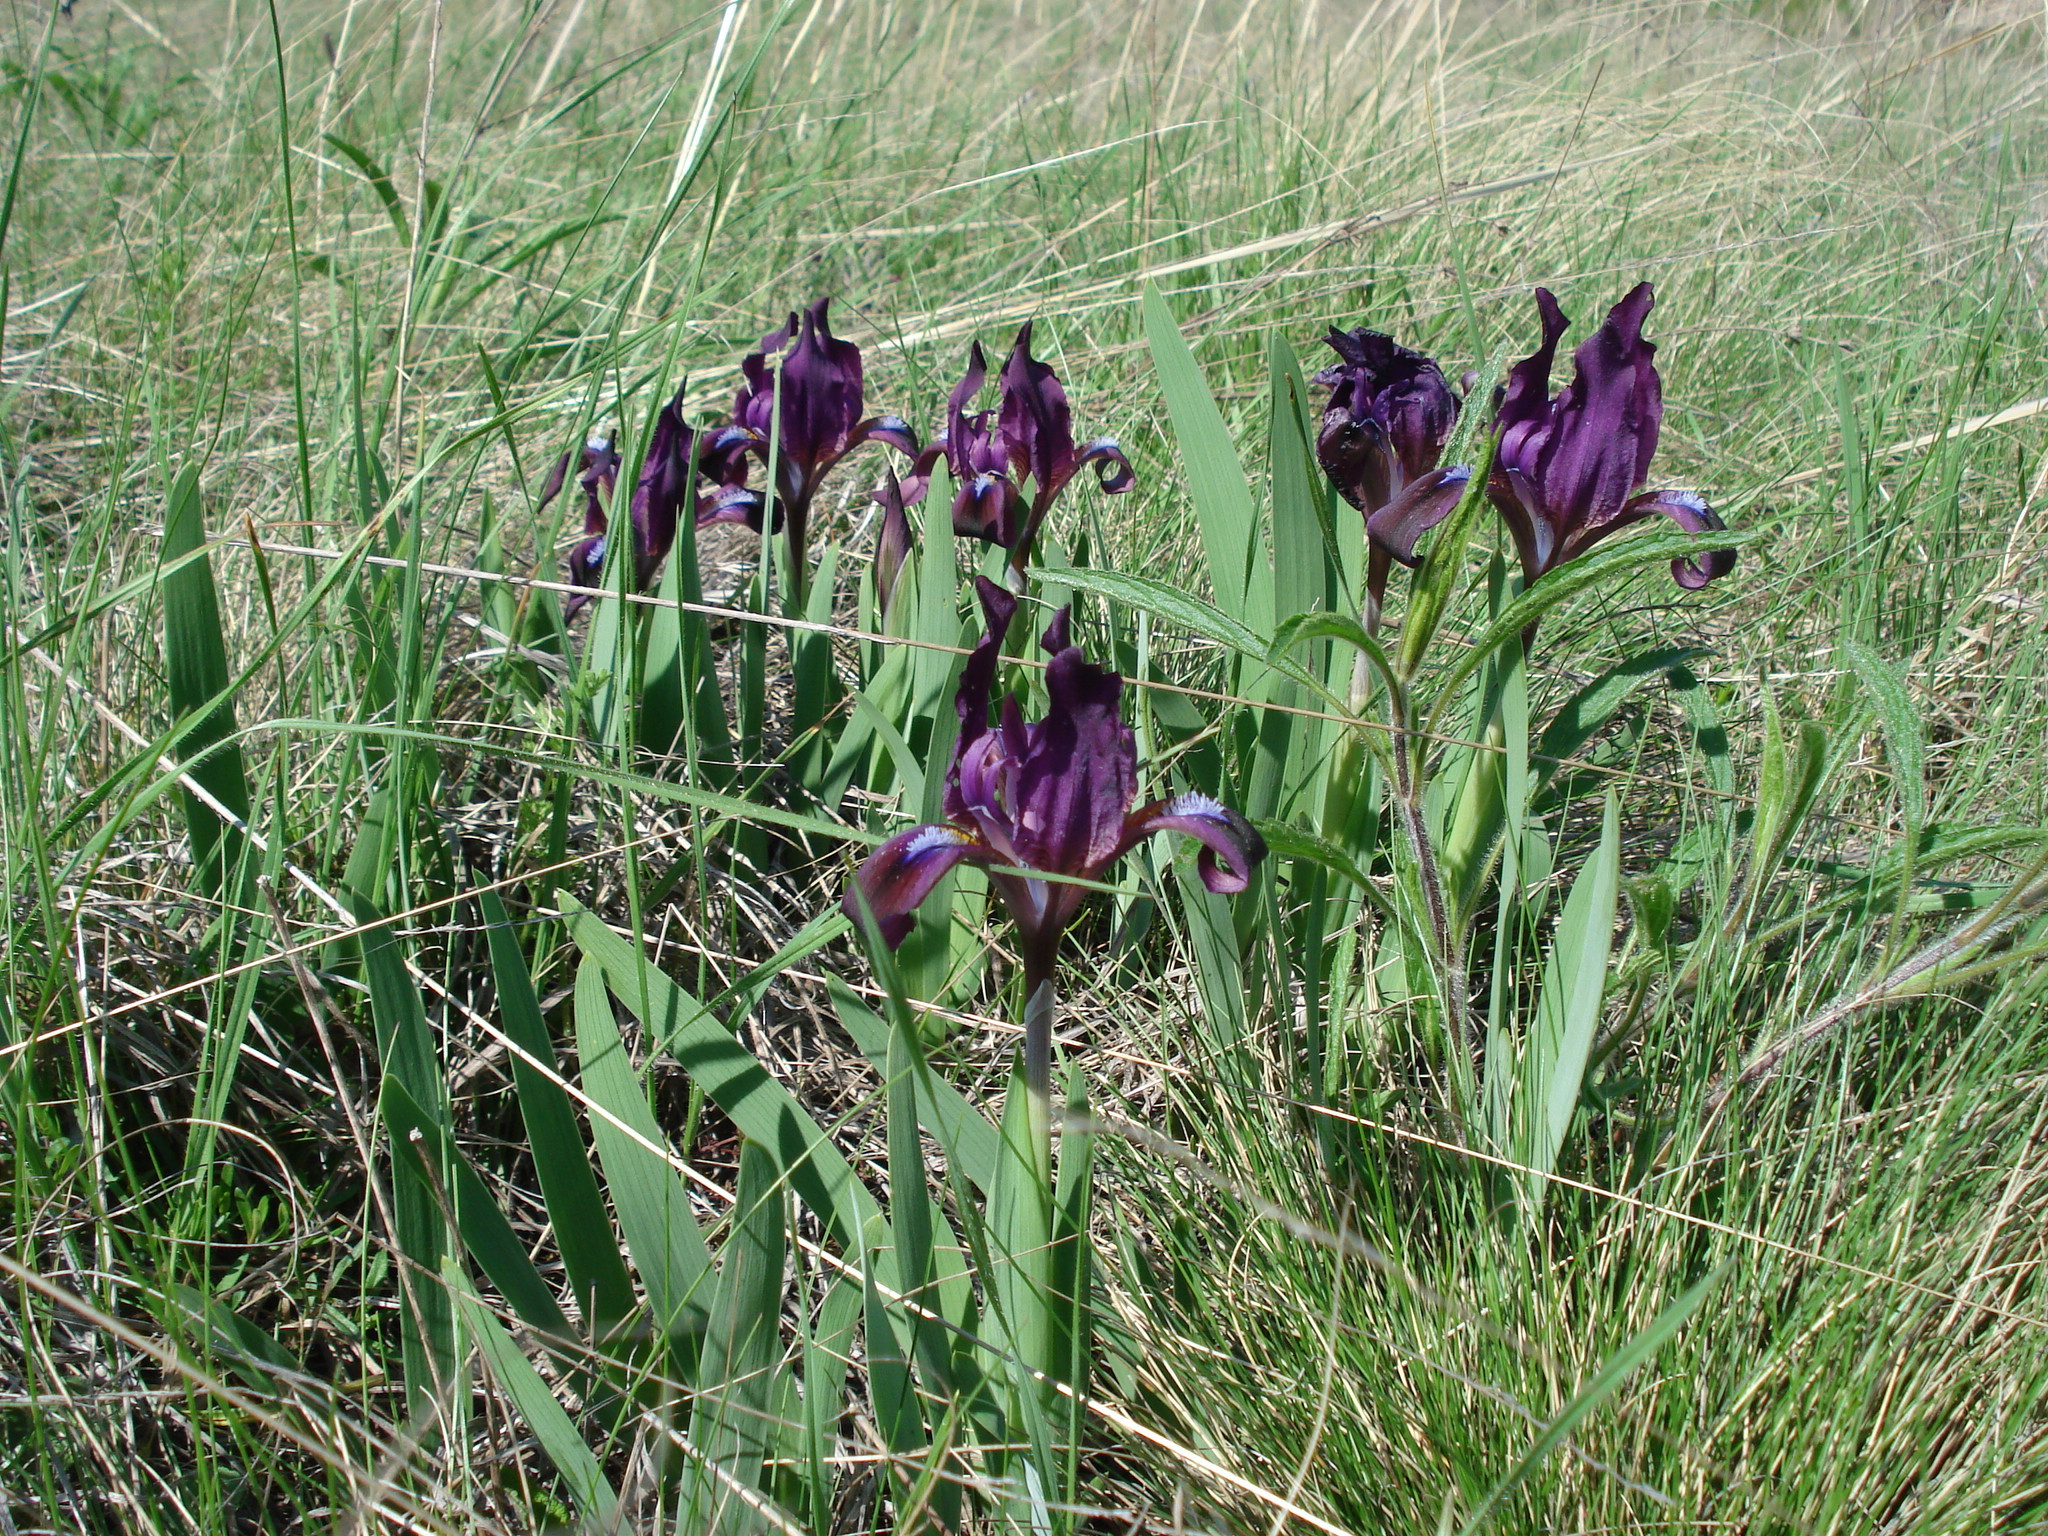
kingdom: Plantae
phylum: Tracheophyta
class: Liliopsida
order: Asparagales
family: Iridaceae
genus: Iris
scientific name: Iris pumila
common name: Dwarf iris
